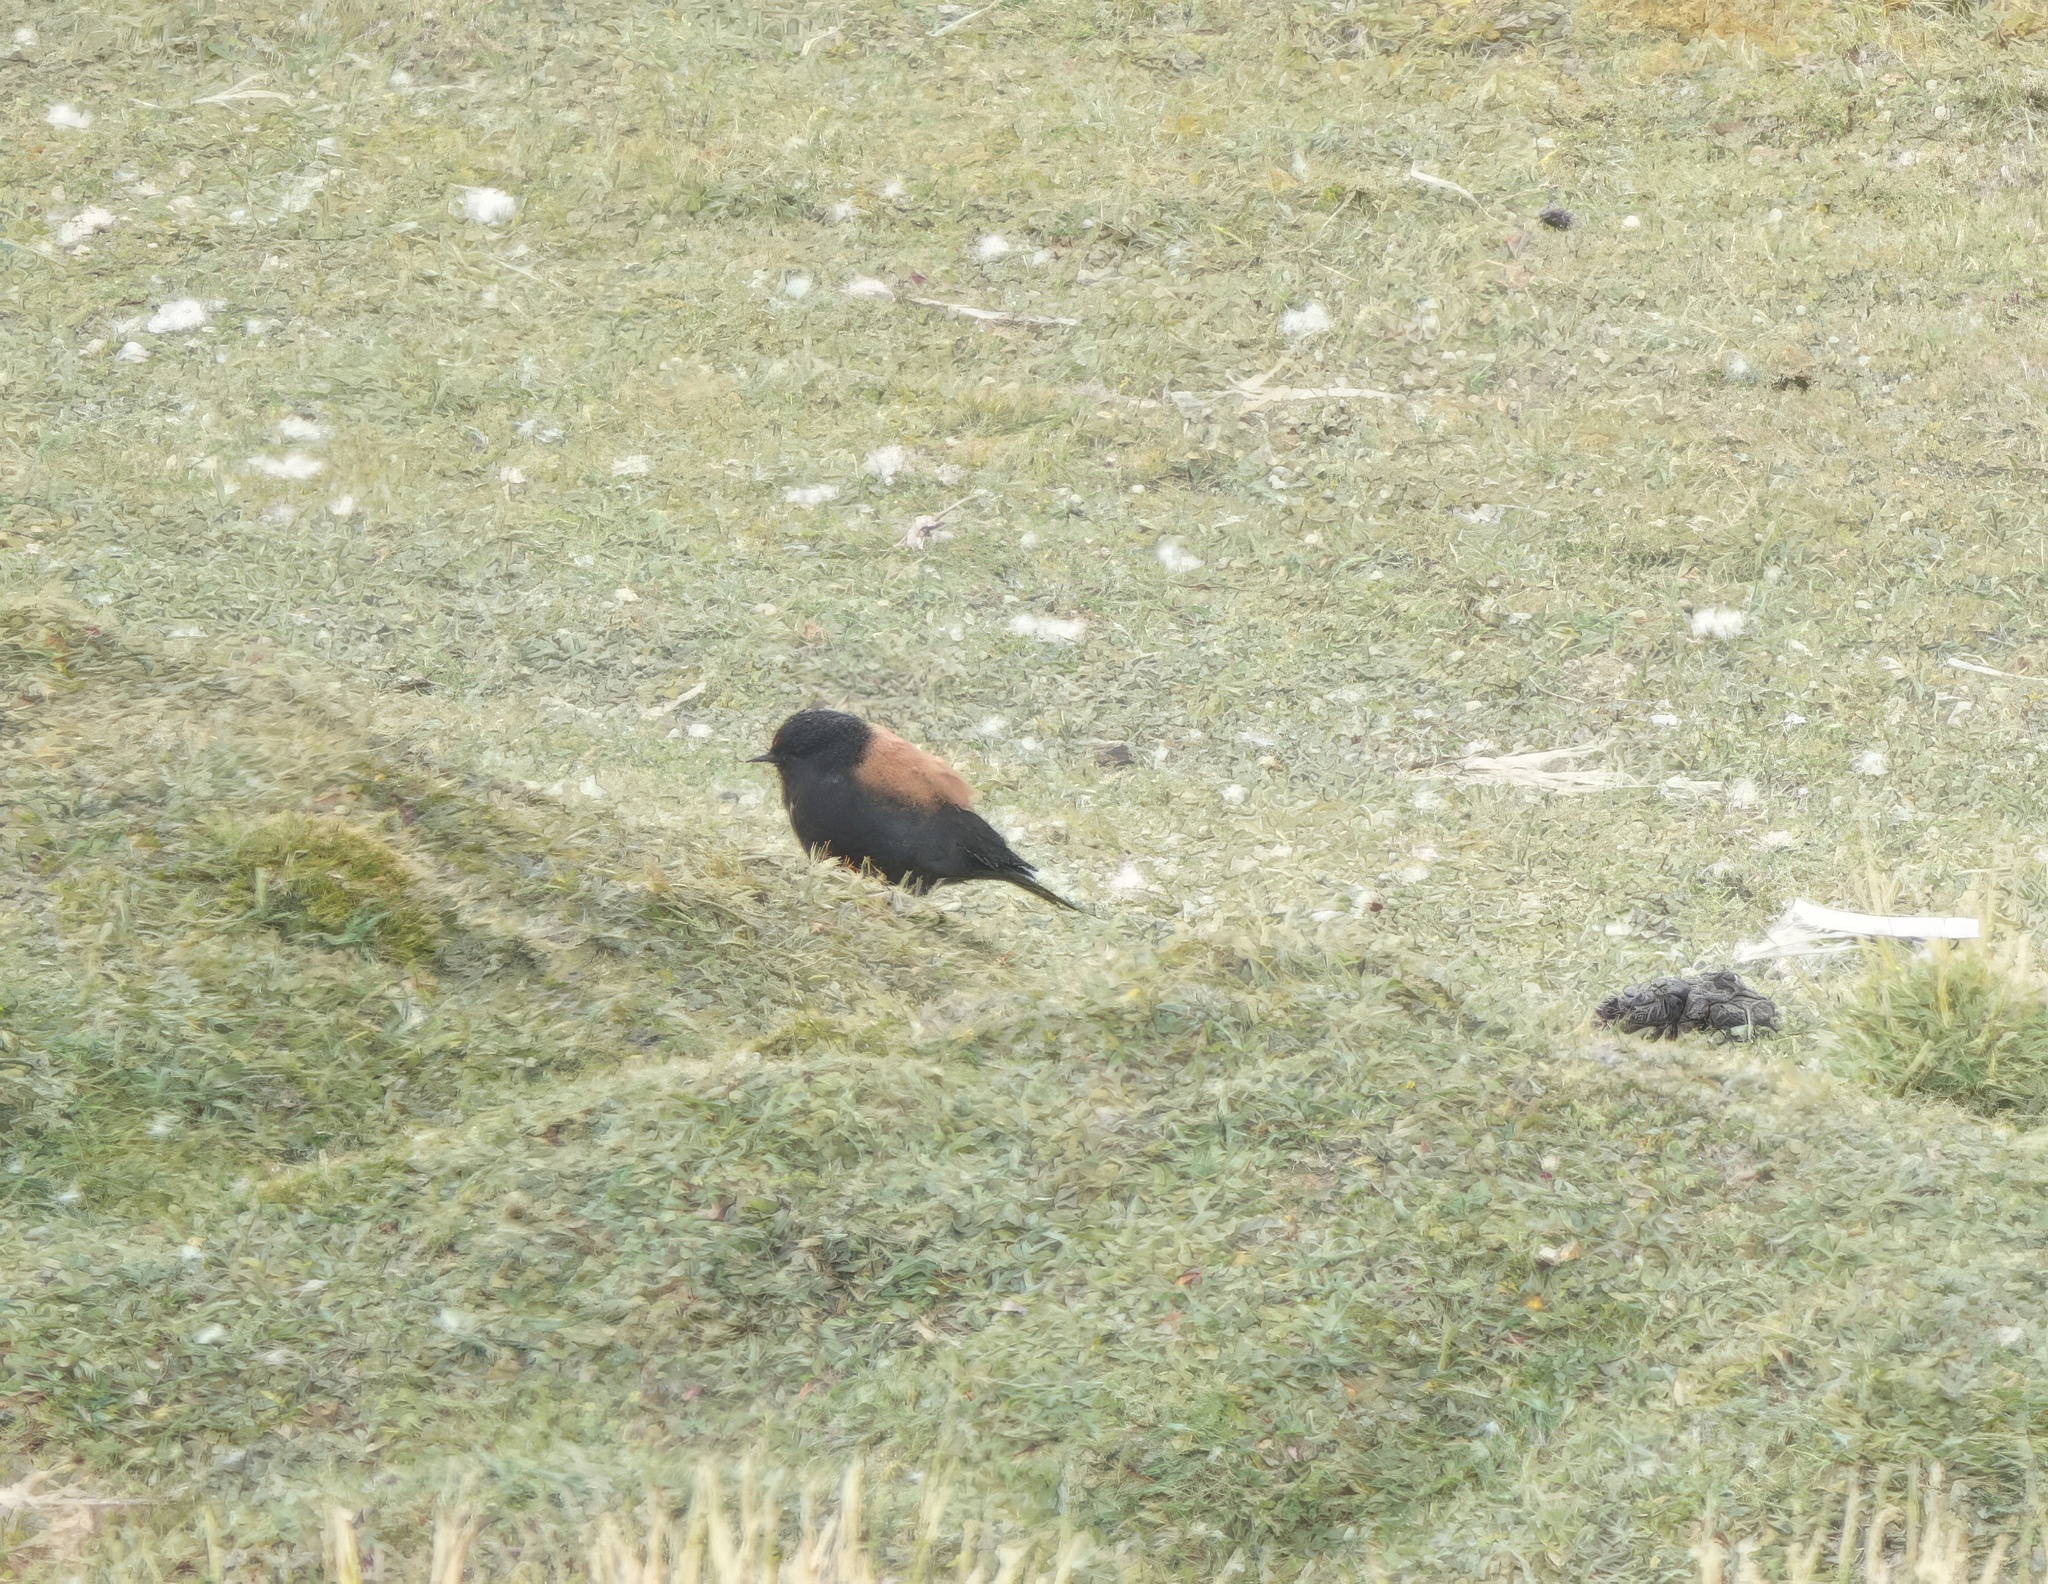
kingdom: Animalia
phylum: Chordata
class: Aves
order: Passeriformes
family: Tyrannidae
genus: Lessonia
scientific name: Lessonia oreas
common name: Andean negrito
